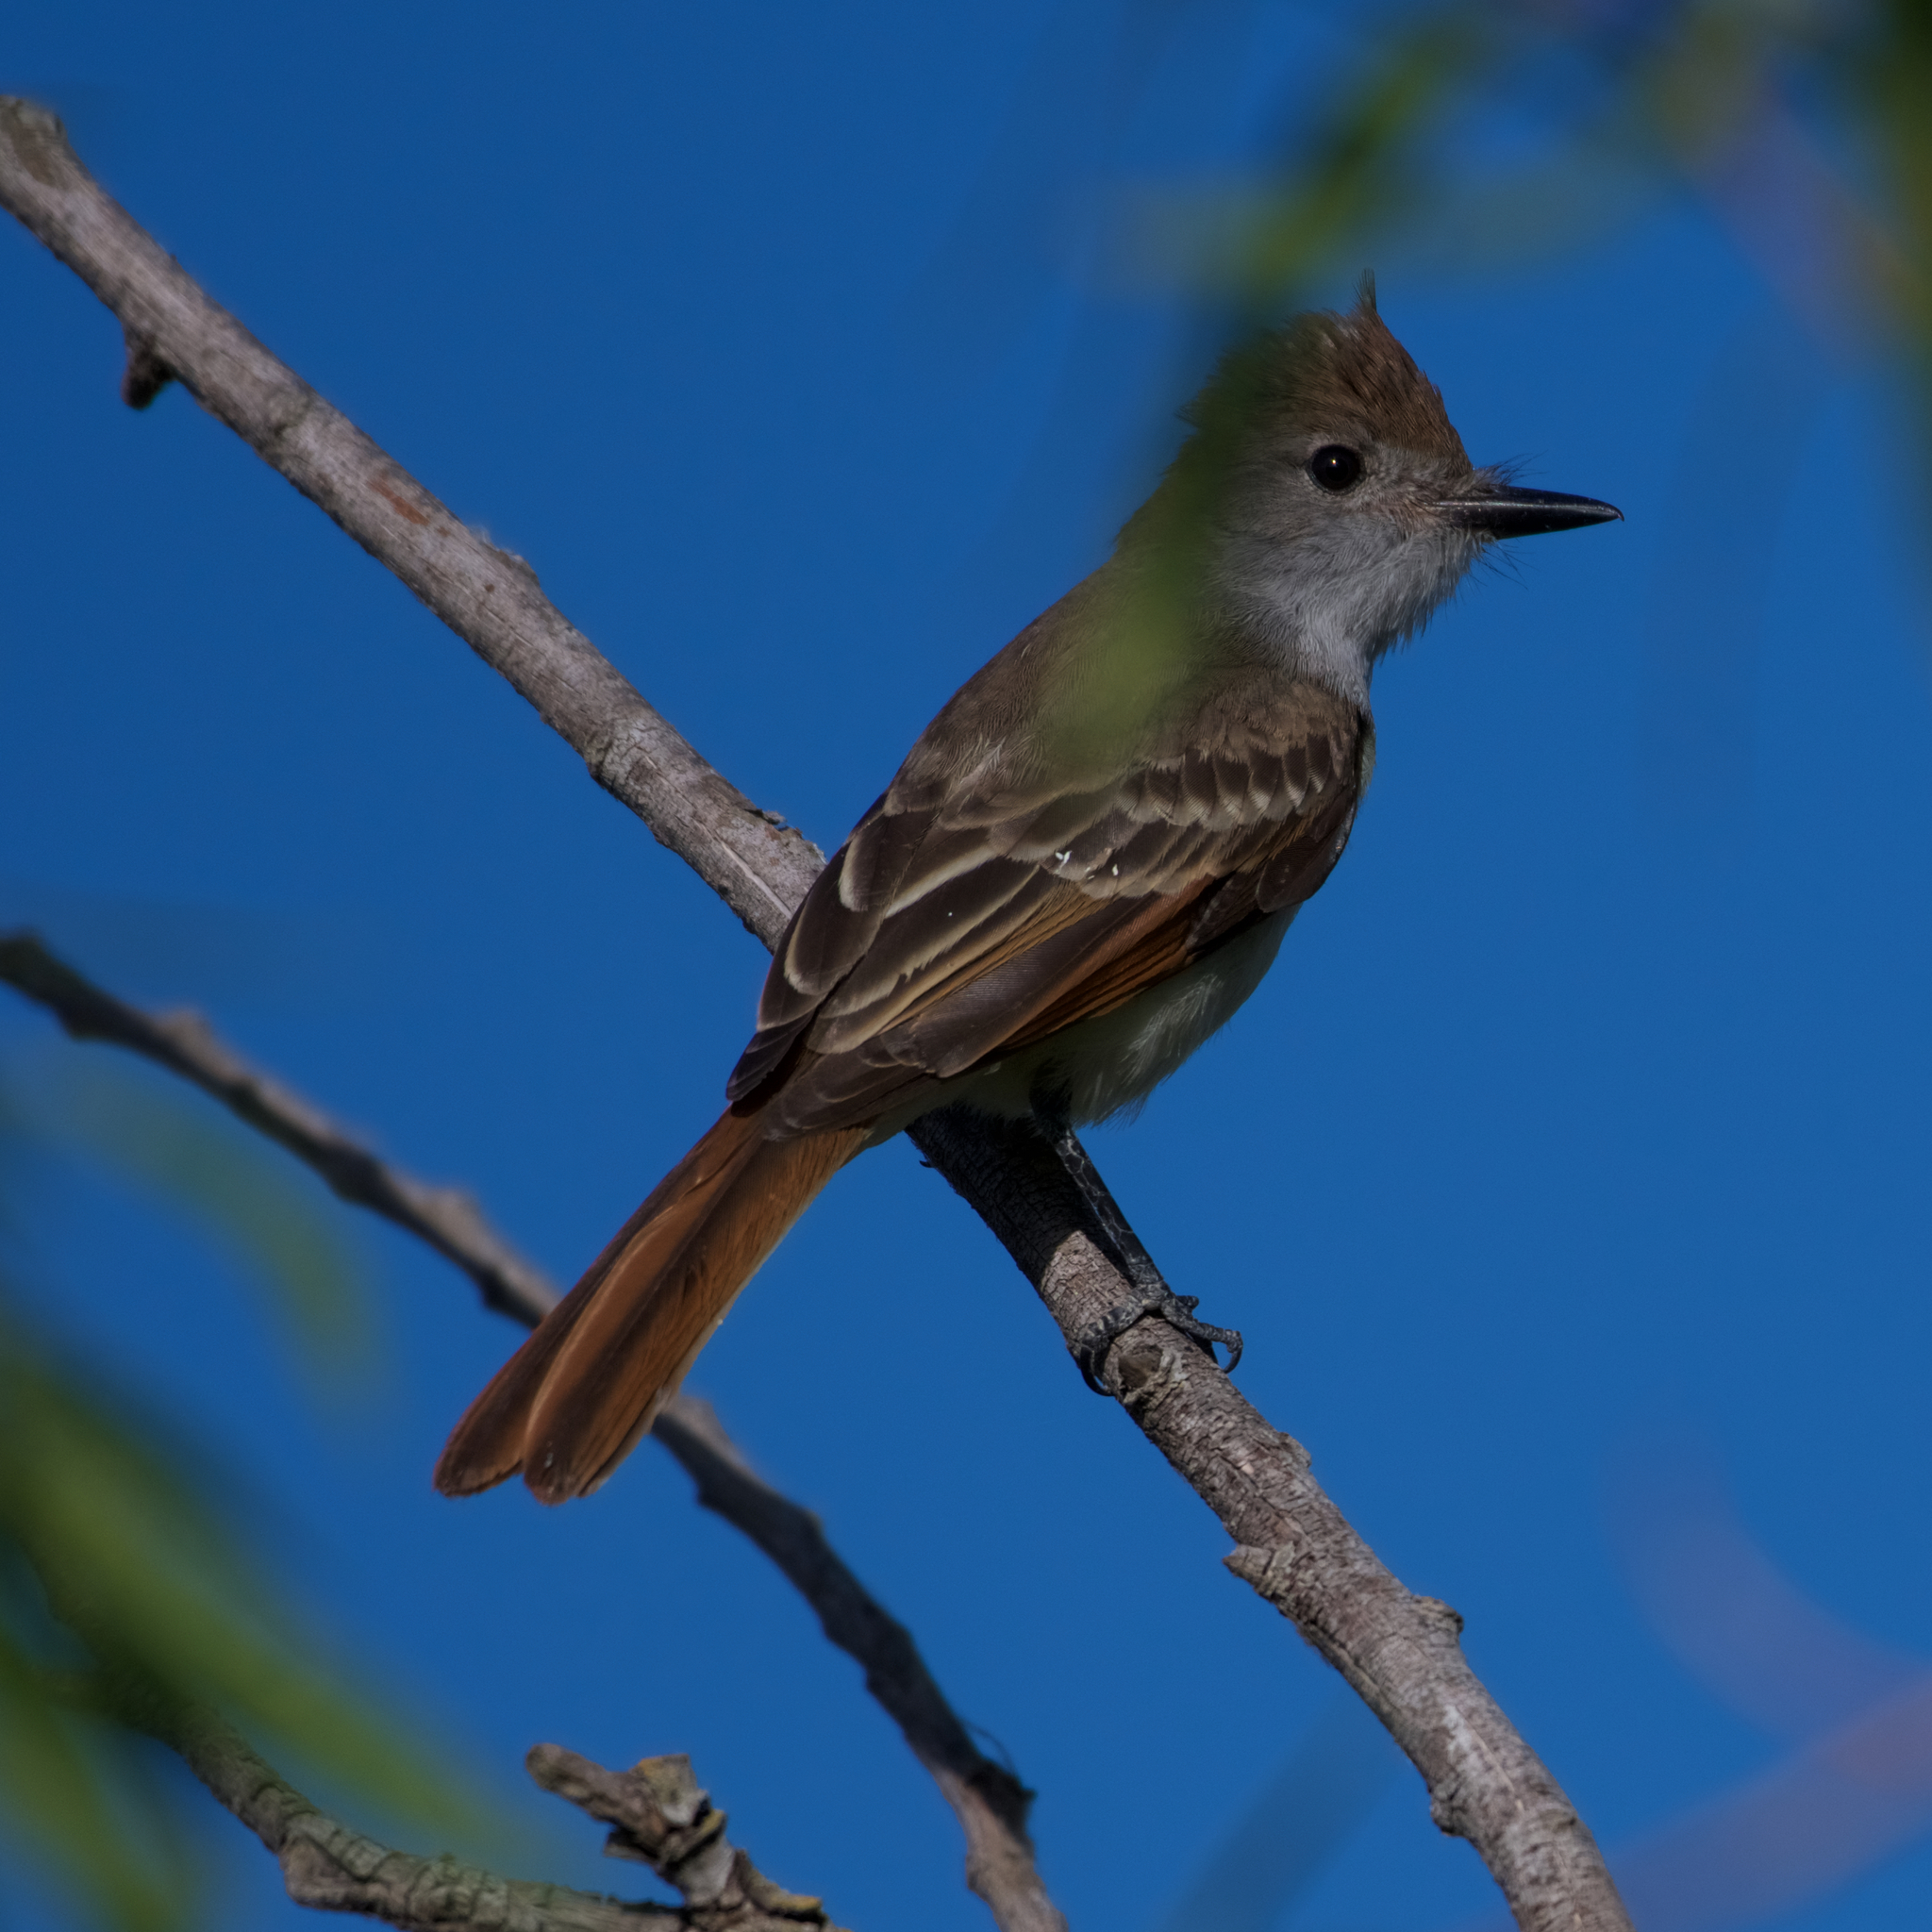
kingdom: Animalia
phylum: Chordata
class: Aves
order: Passeriformes
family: Tyrannidae
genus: Myiarchus
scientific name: Myiarchus cinerascens
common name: Ash-throated flycatcher
